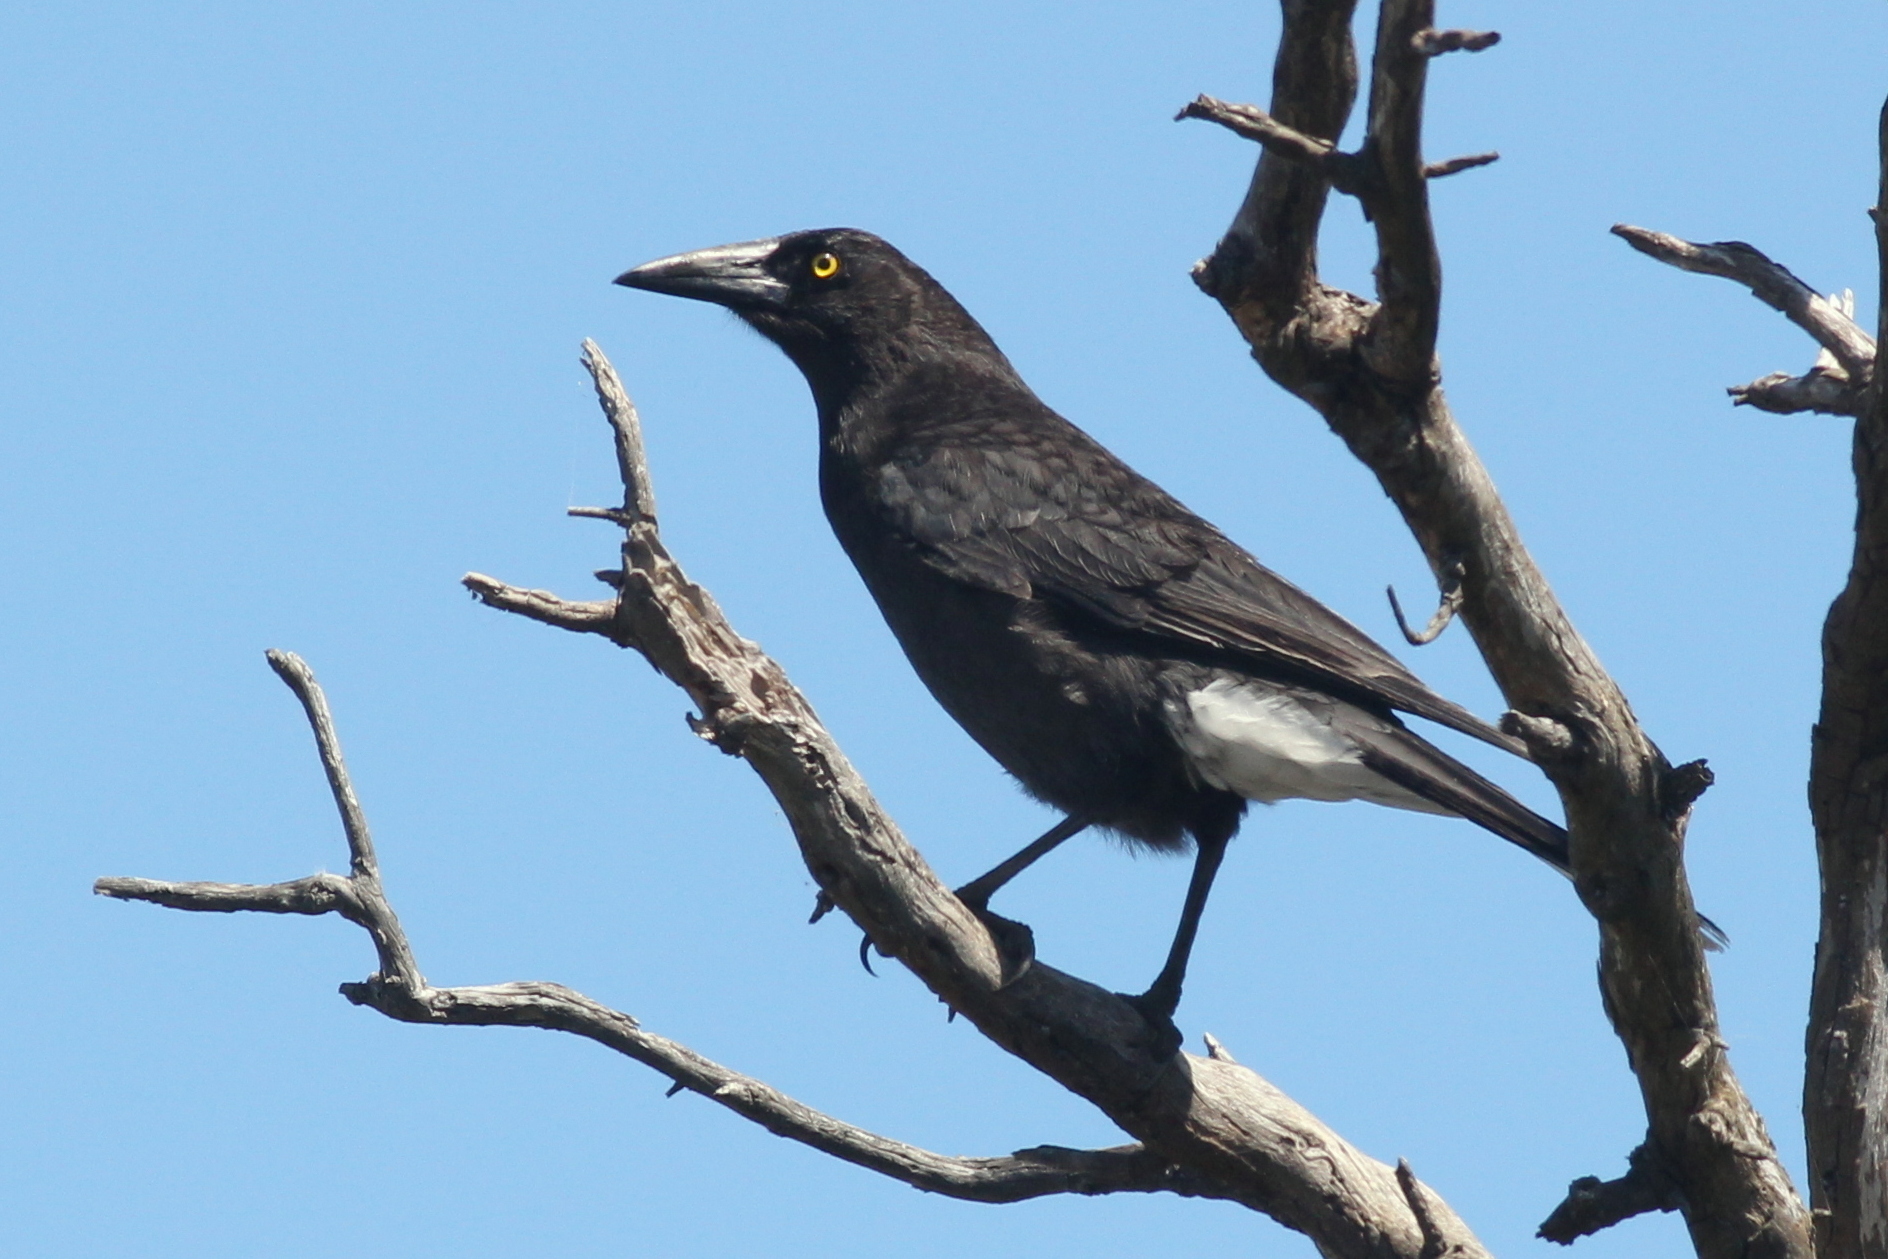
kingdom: Animalia
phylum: Chordata
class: Aves
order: Passeriformes
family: Cracticidae
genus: Strepera
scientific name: Strepera versicolor
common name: Grey currawong
